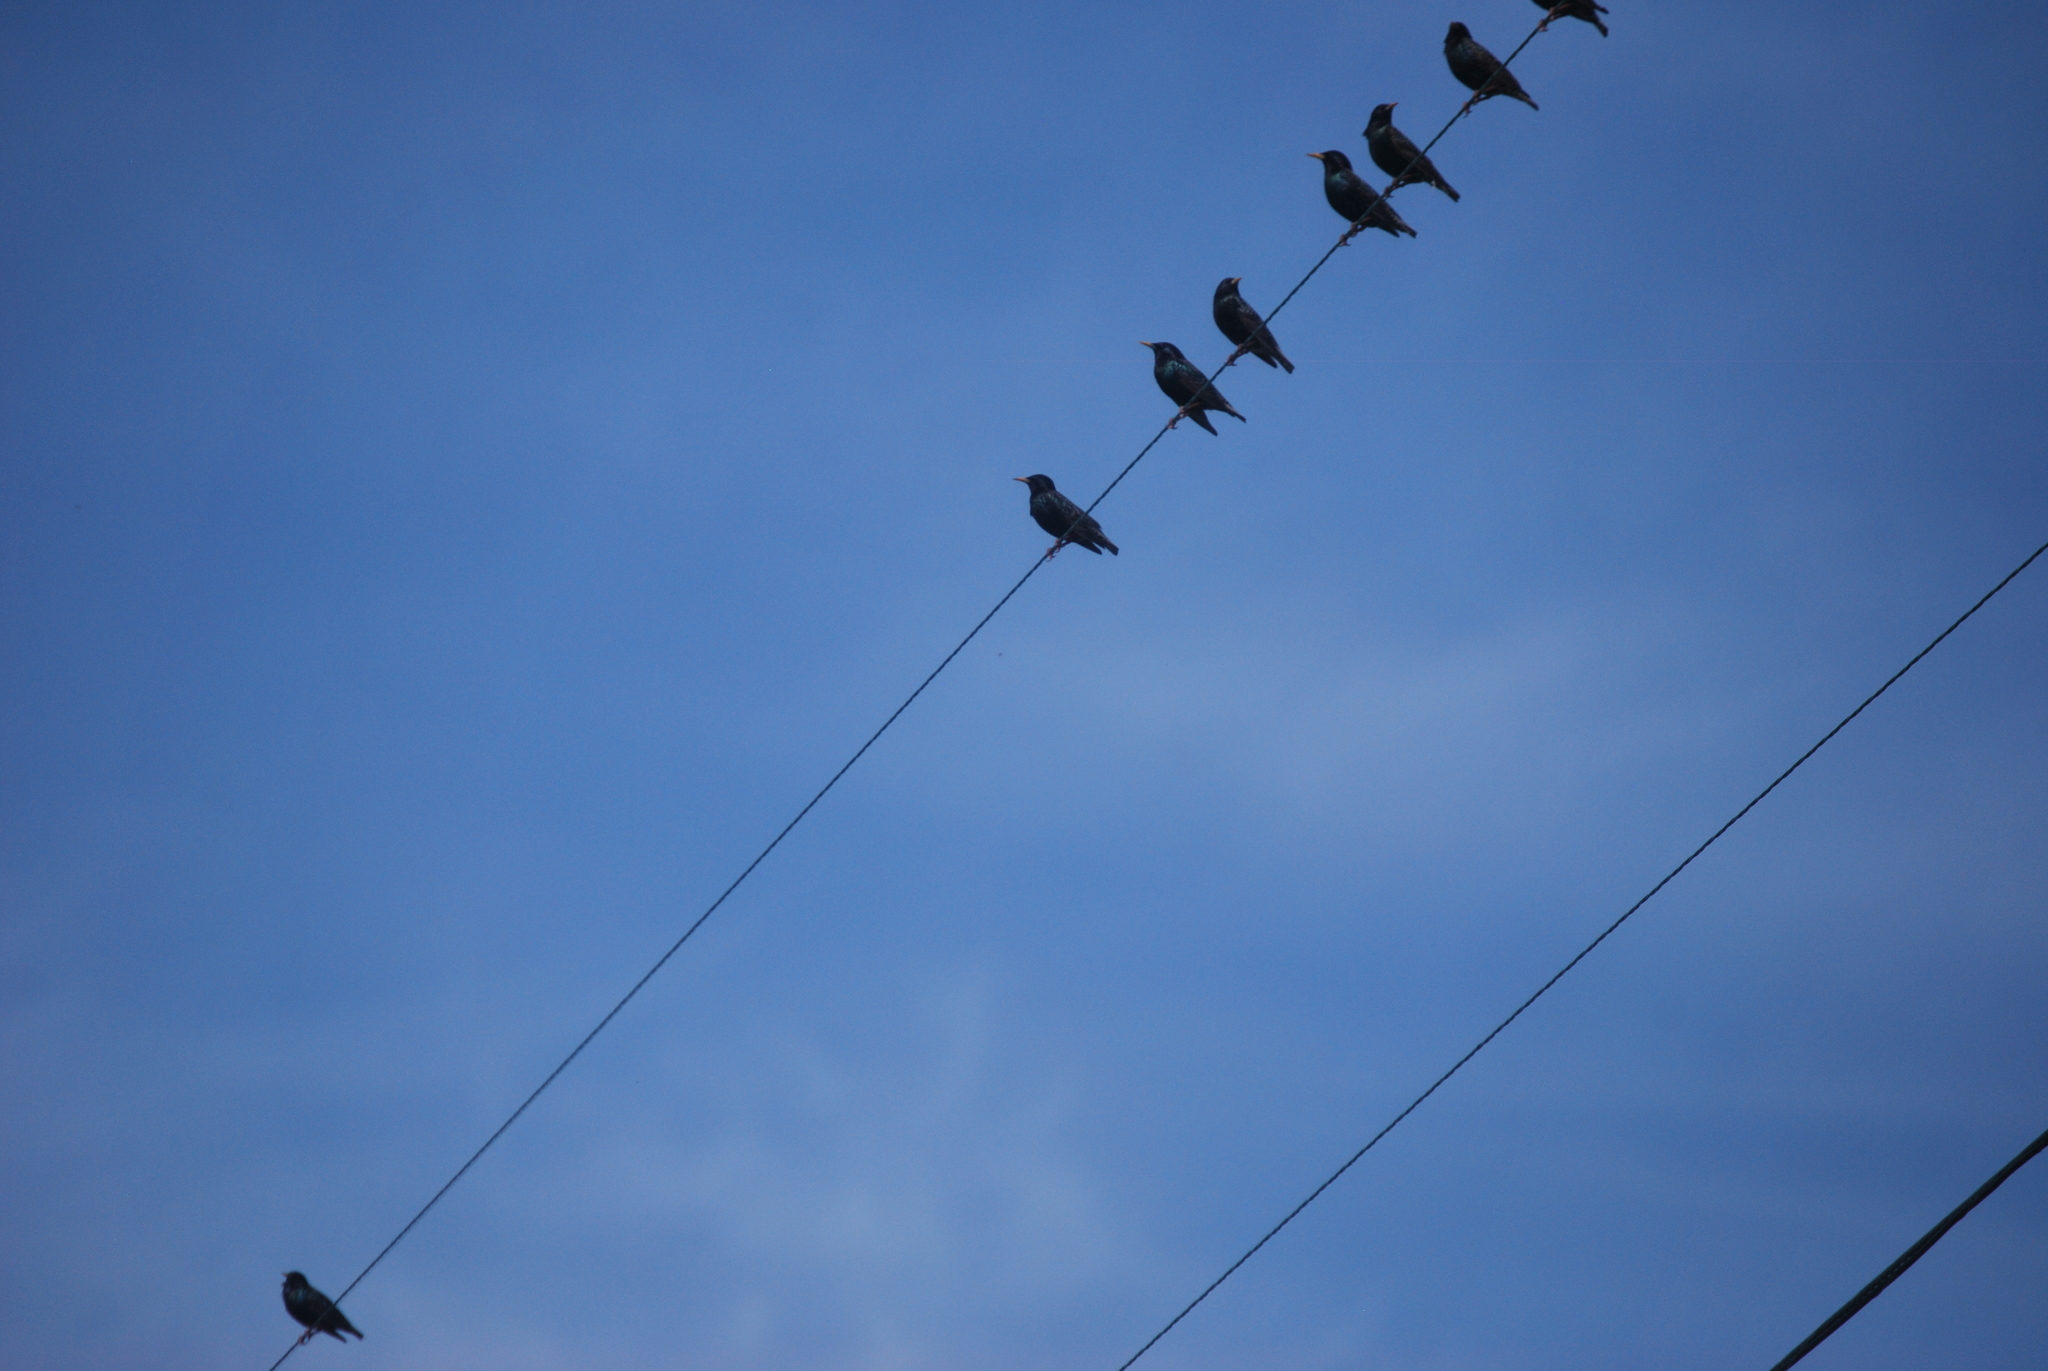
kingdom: Animalia
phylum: Chordata
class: Aves
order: Passeriformes
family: Sturnidae
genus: Sturnus
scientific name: Sturnus vulgaris
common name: Common starling
